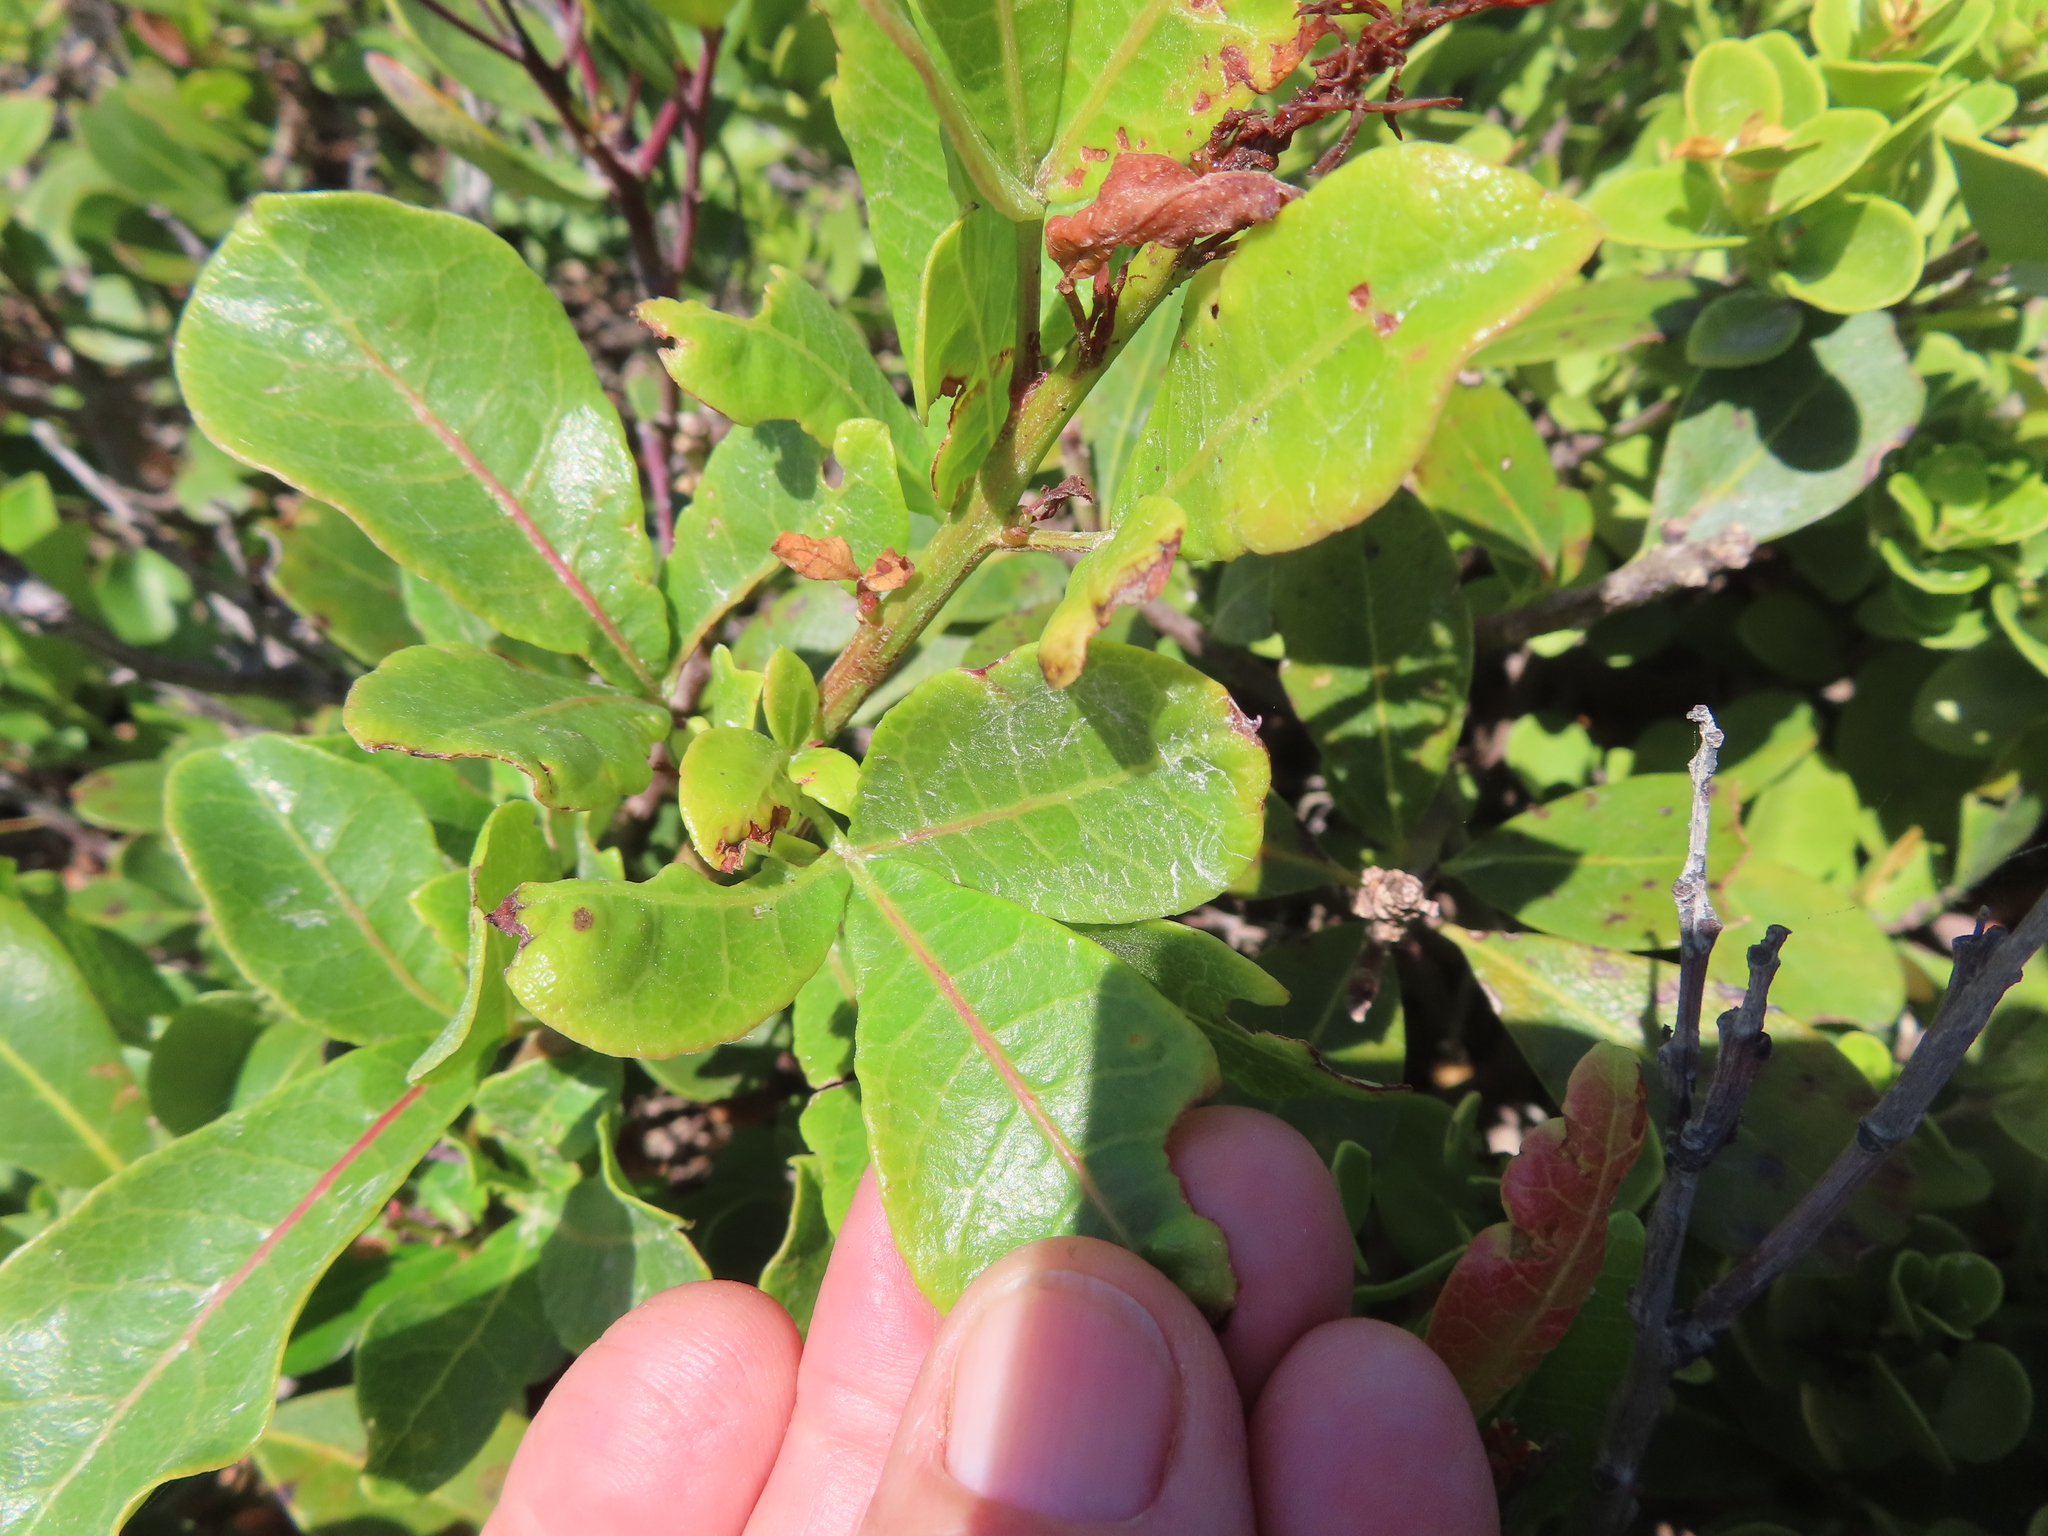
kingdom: Plantae
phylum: Tracheophyta
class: Magnoliopsida
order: Sapindales
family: Anacardiaceae
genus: Searsia
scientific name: Searsia laevigata
